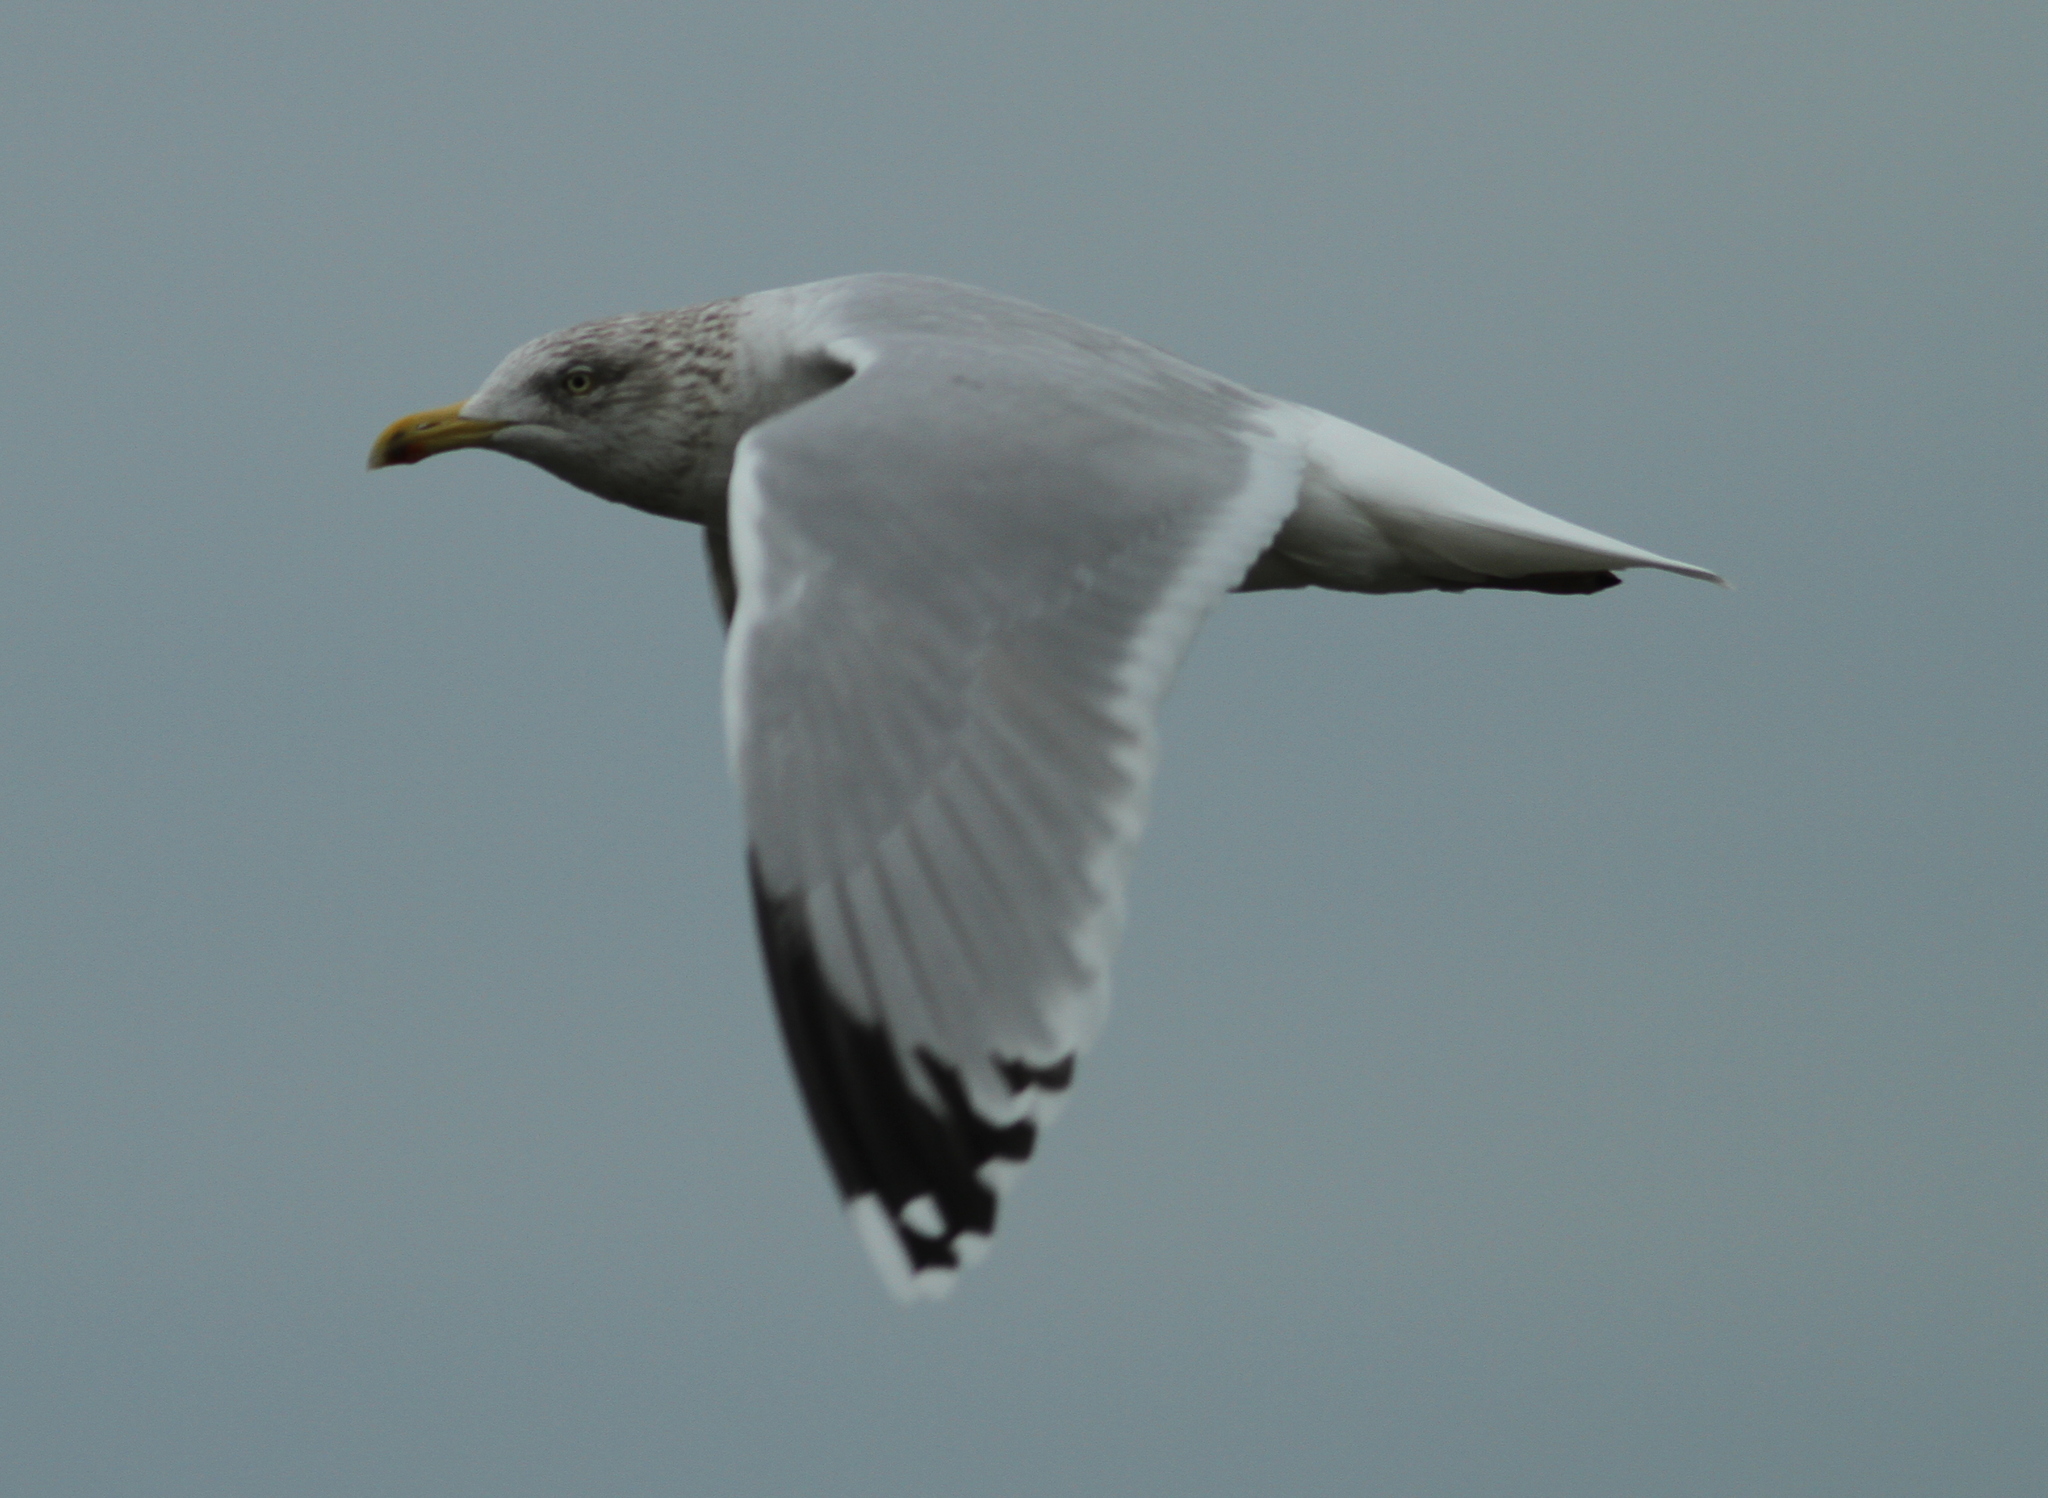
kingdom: Animalia
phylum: Chordata
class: Aves
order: Charadriiformes
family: Laridae
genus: Larus
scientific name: Larus argentatus
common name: Herring gull
